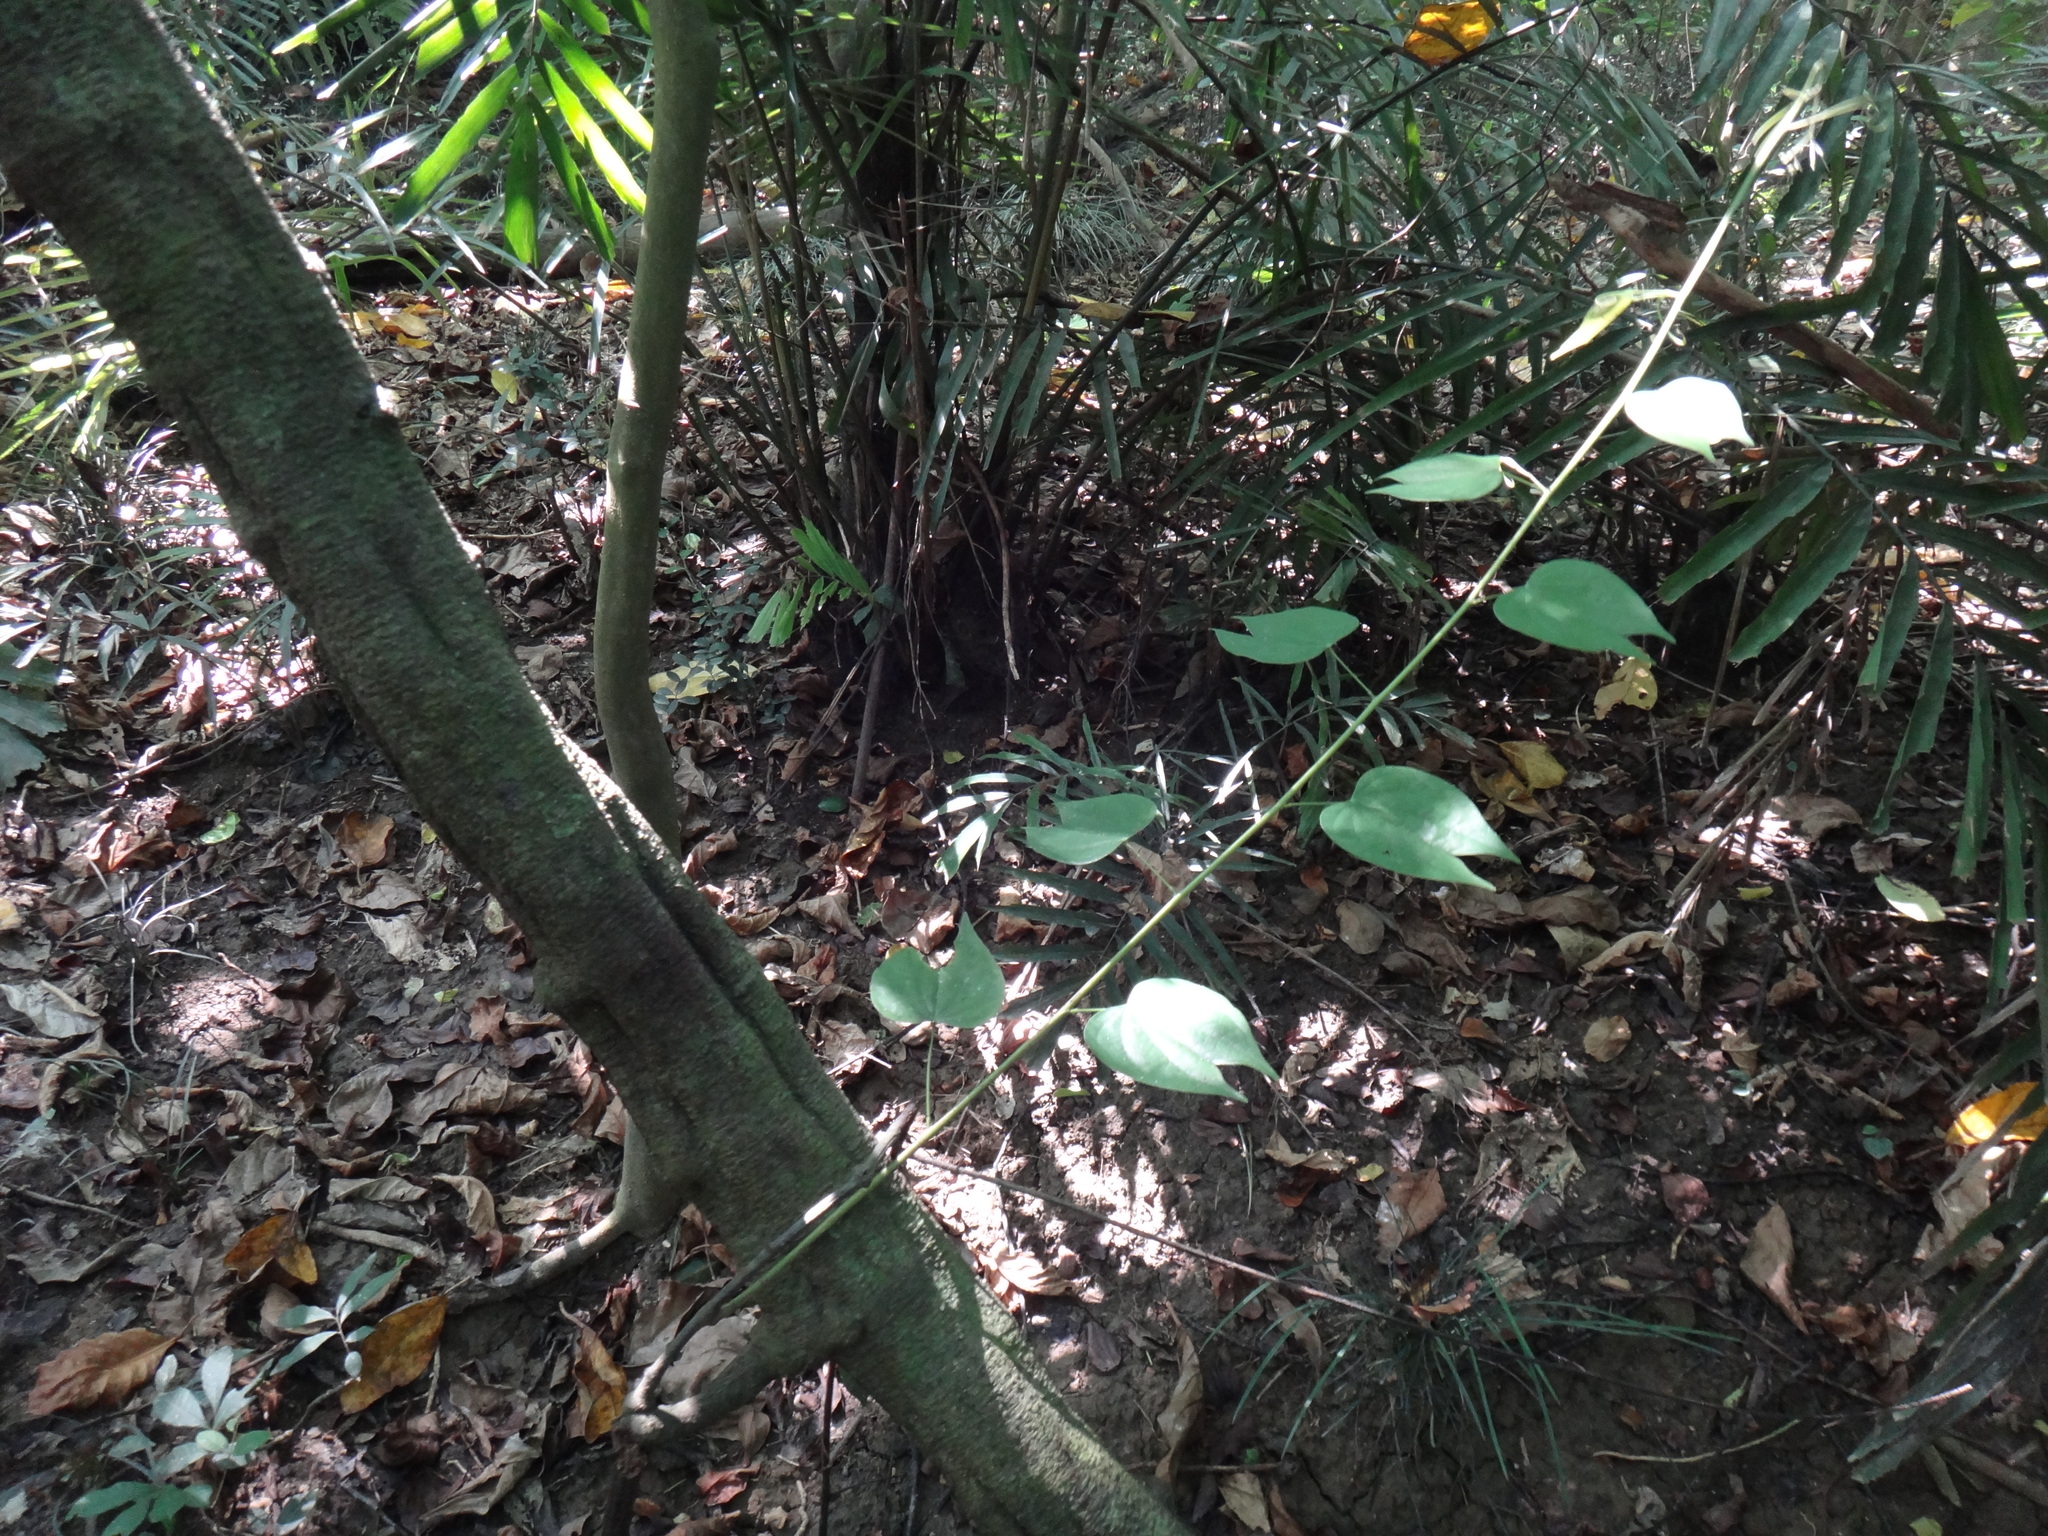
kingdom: Plantae
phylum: Tracheophyta
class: Magnoliopsida
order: Fabales
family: Fabaceae
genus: Phanera
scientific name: Phanera championii
